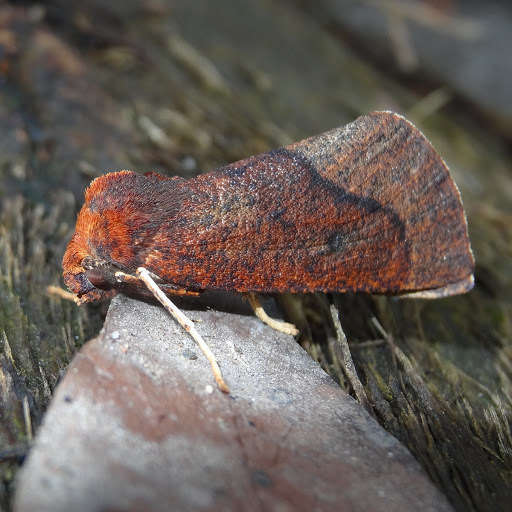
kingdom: Animalia
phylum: Arthropoda
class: Insecta
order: Lepidoptera
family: Geometridae
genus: Fisera
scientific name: Fisera belidearia
